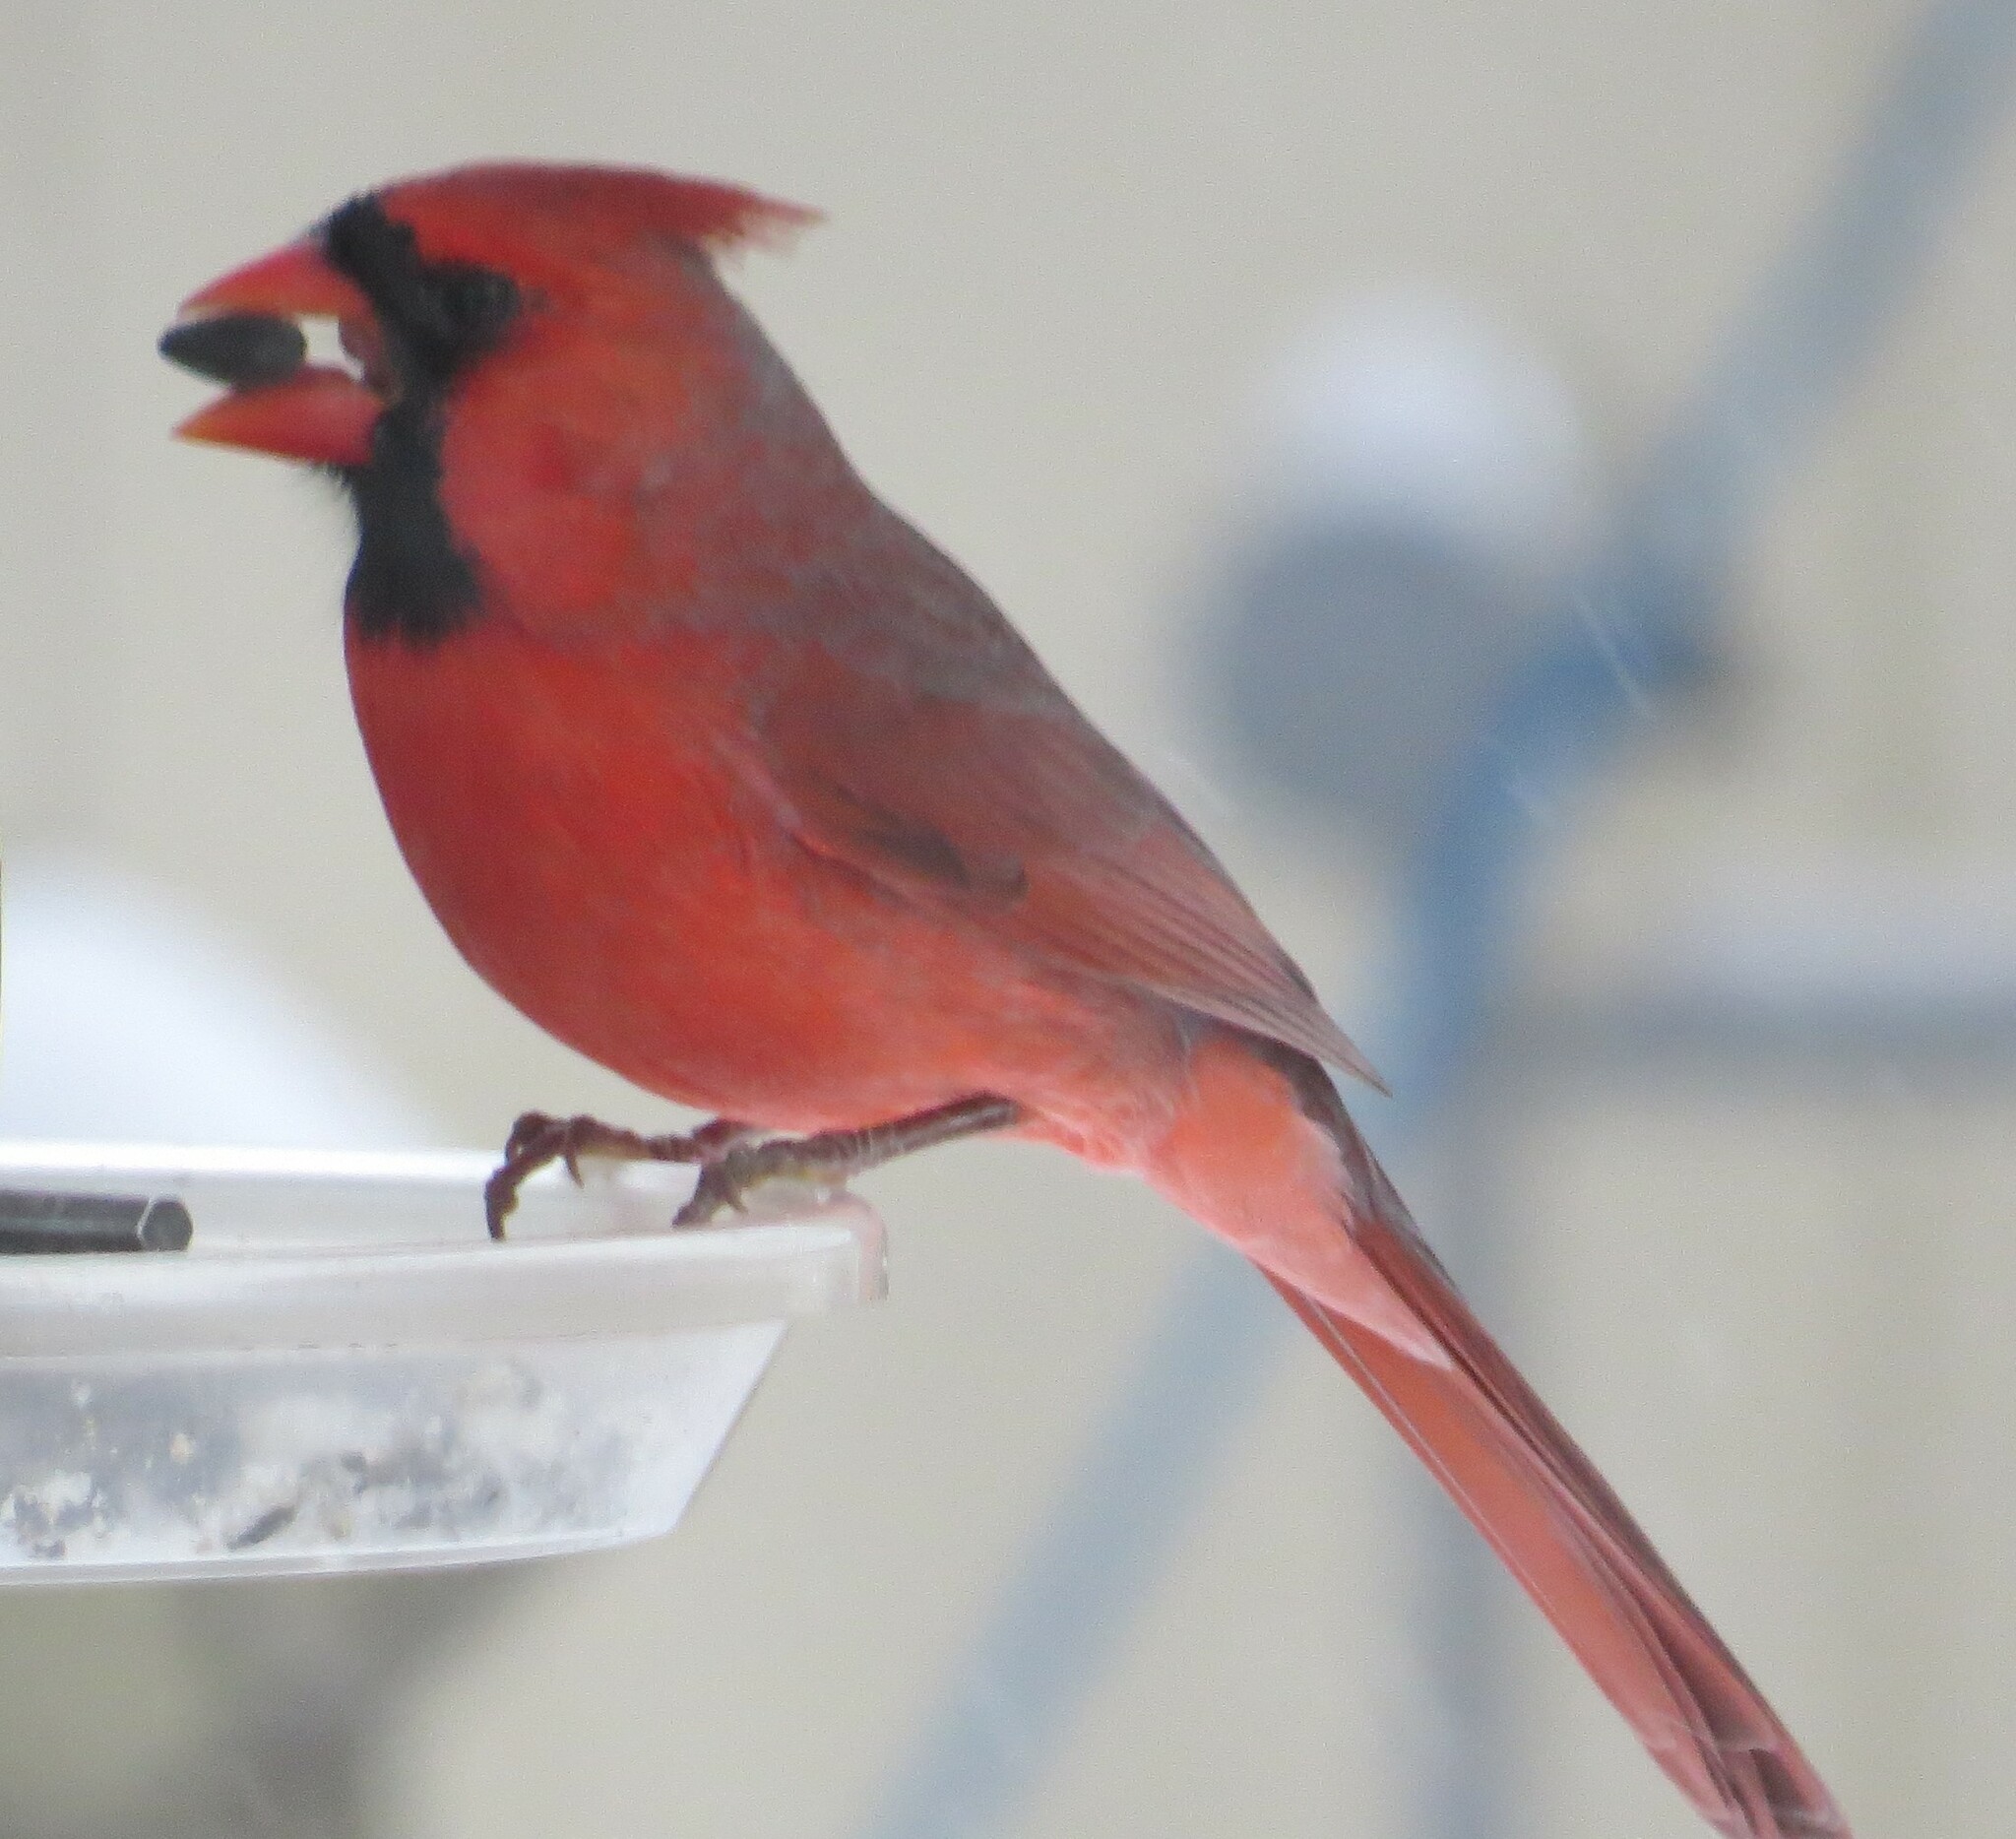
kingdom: Animalia
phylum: Chordata
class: Aves
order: Passeriformes
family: Cardinalidae
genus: Cardinalis
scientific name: Cardinalis cardinalis
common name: Northern cardinal
